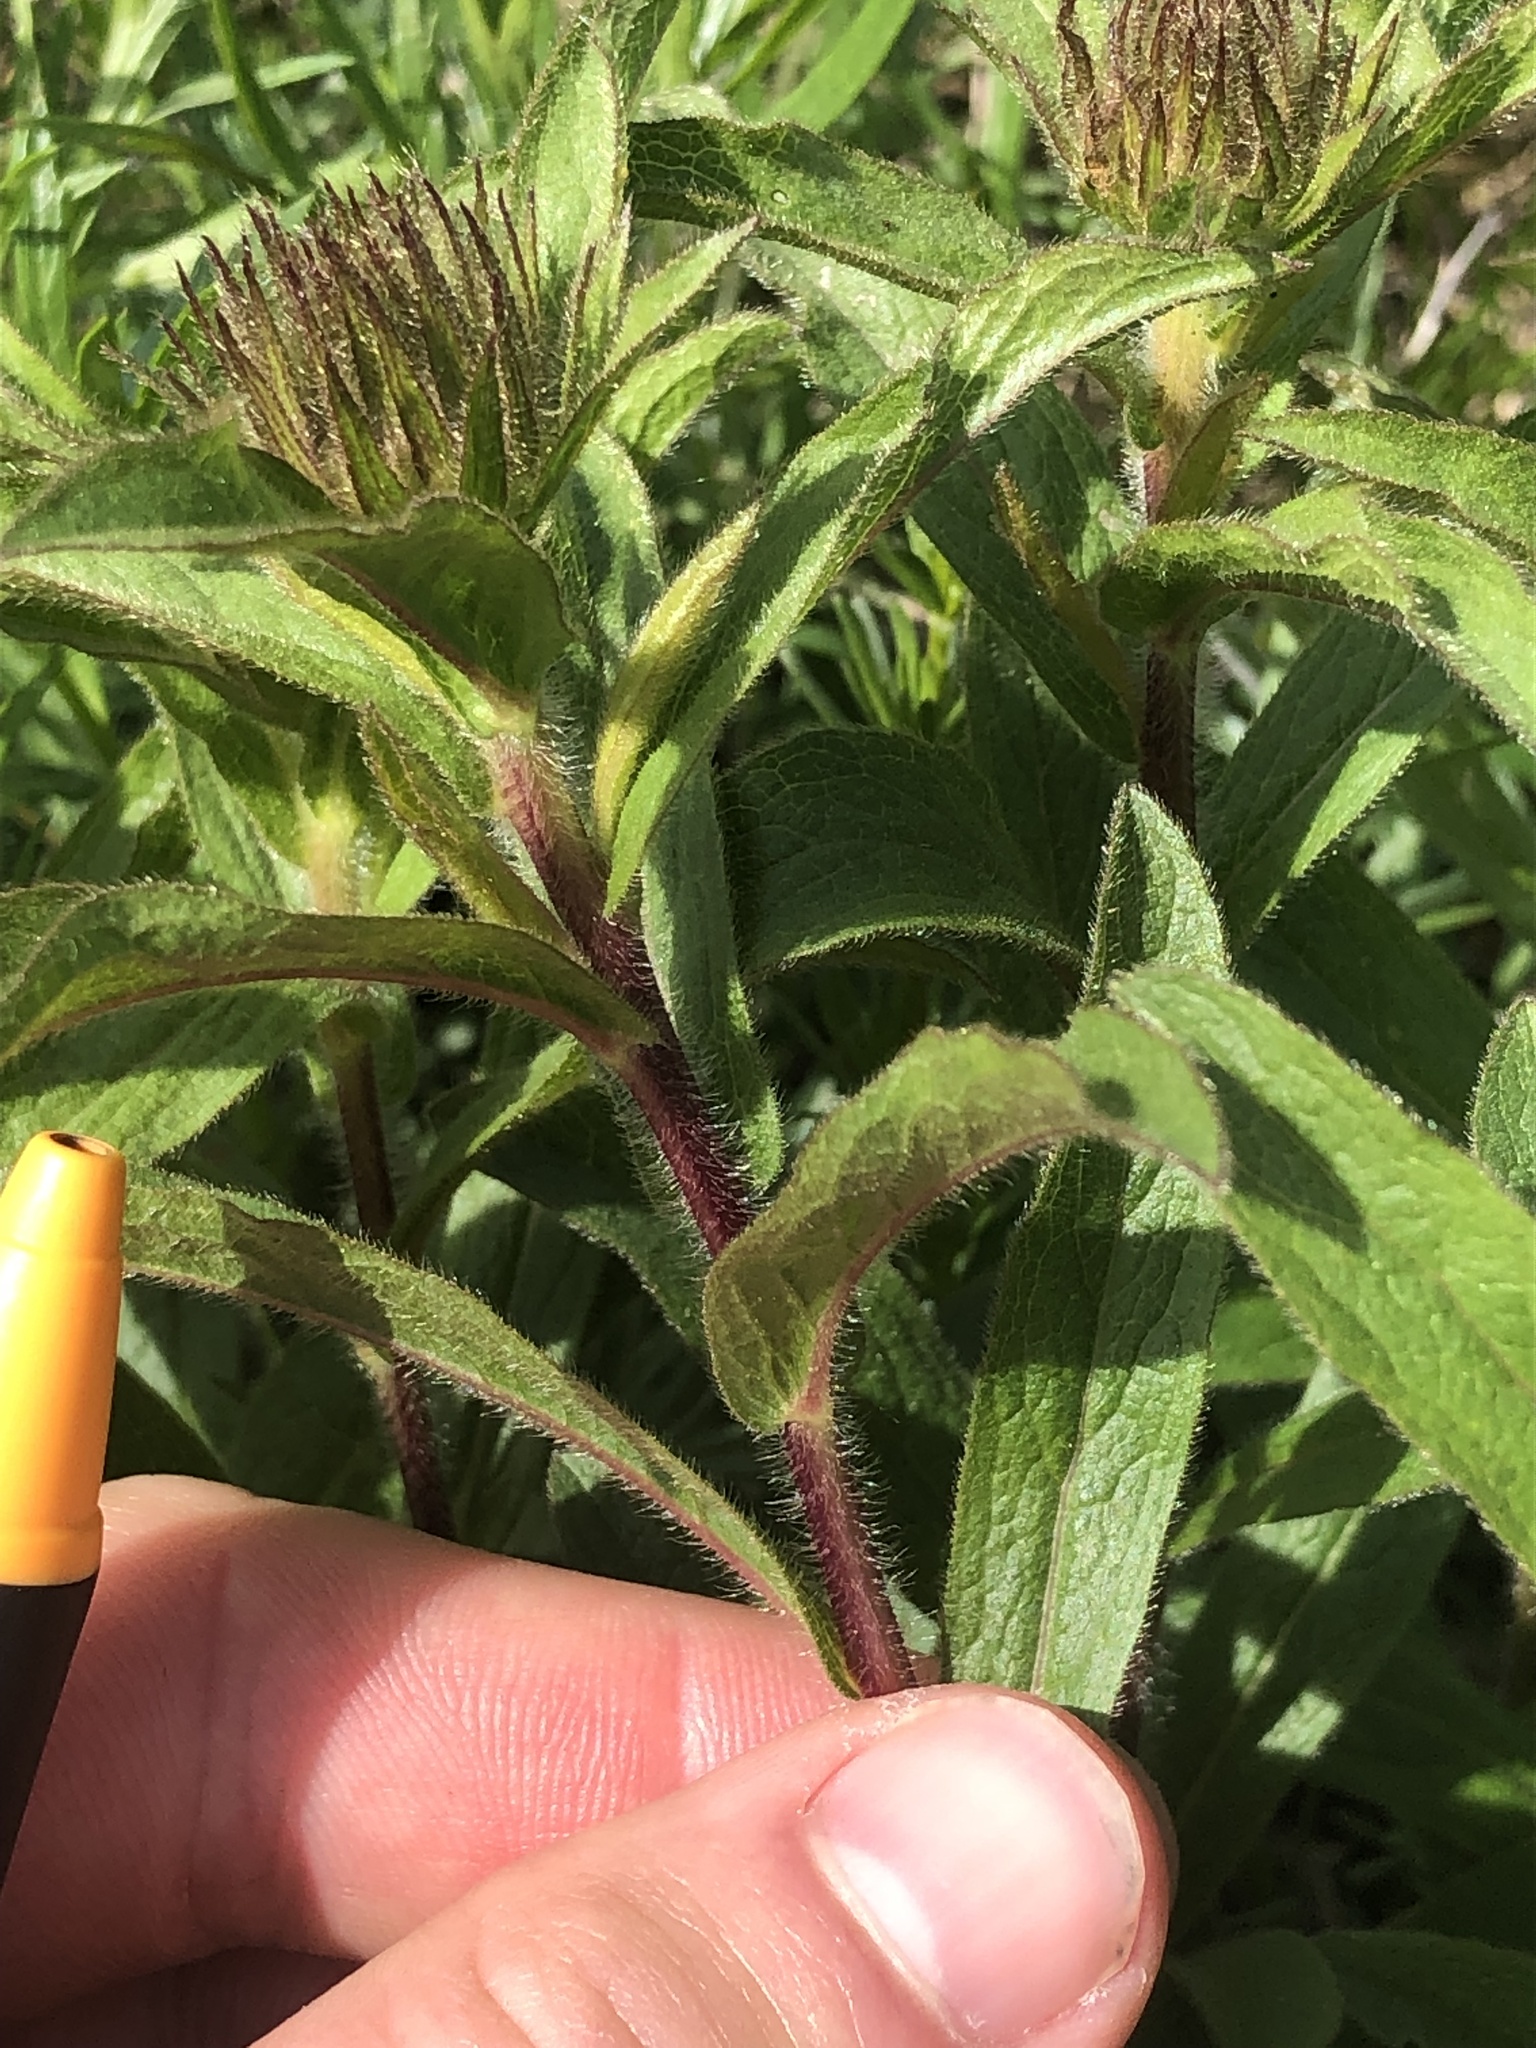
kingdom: Plantae
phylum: Tracheophyta
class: Magnoliopsida
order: Asterales
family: Asteraceae
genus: Pentanema
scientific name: Pentanema hirtum
